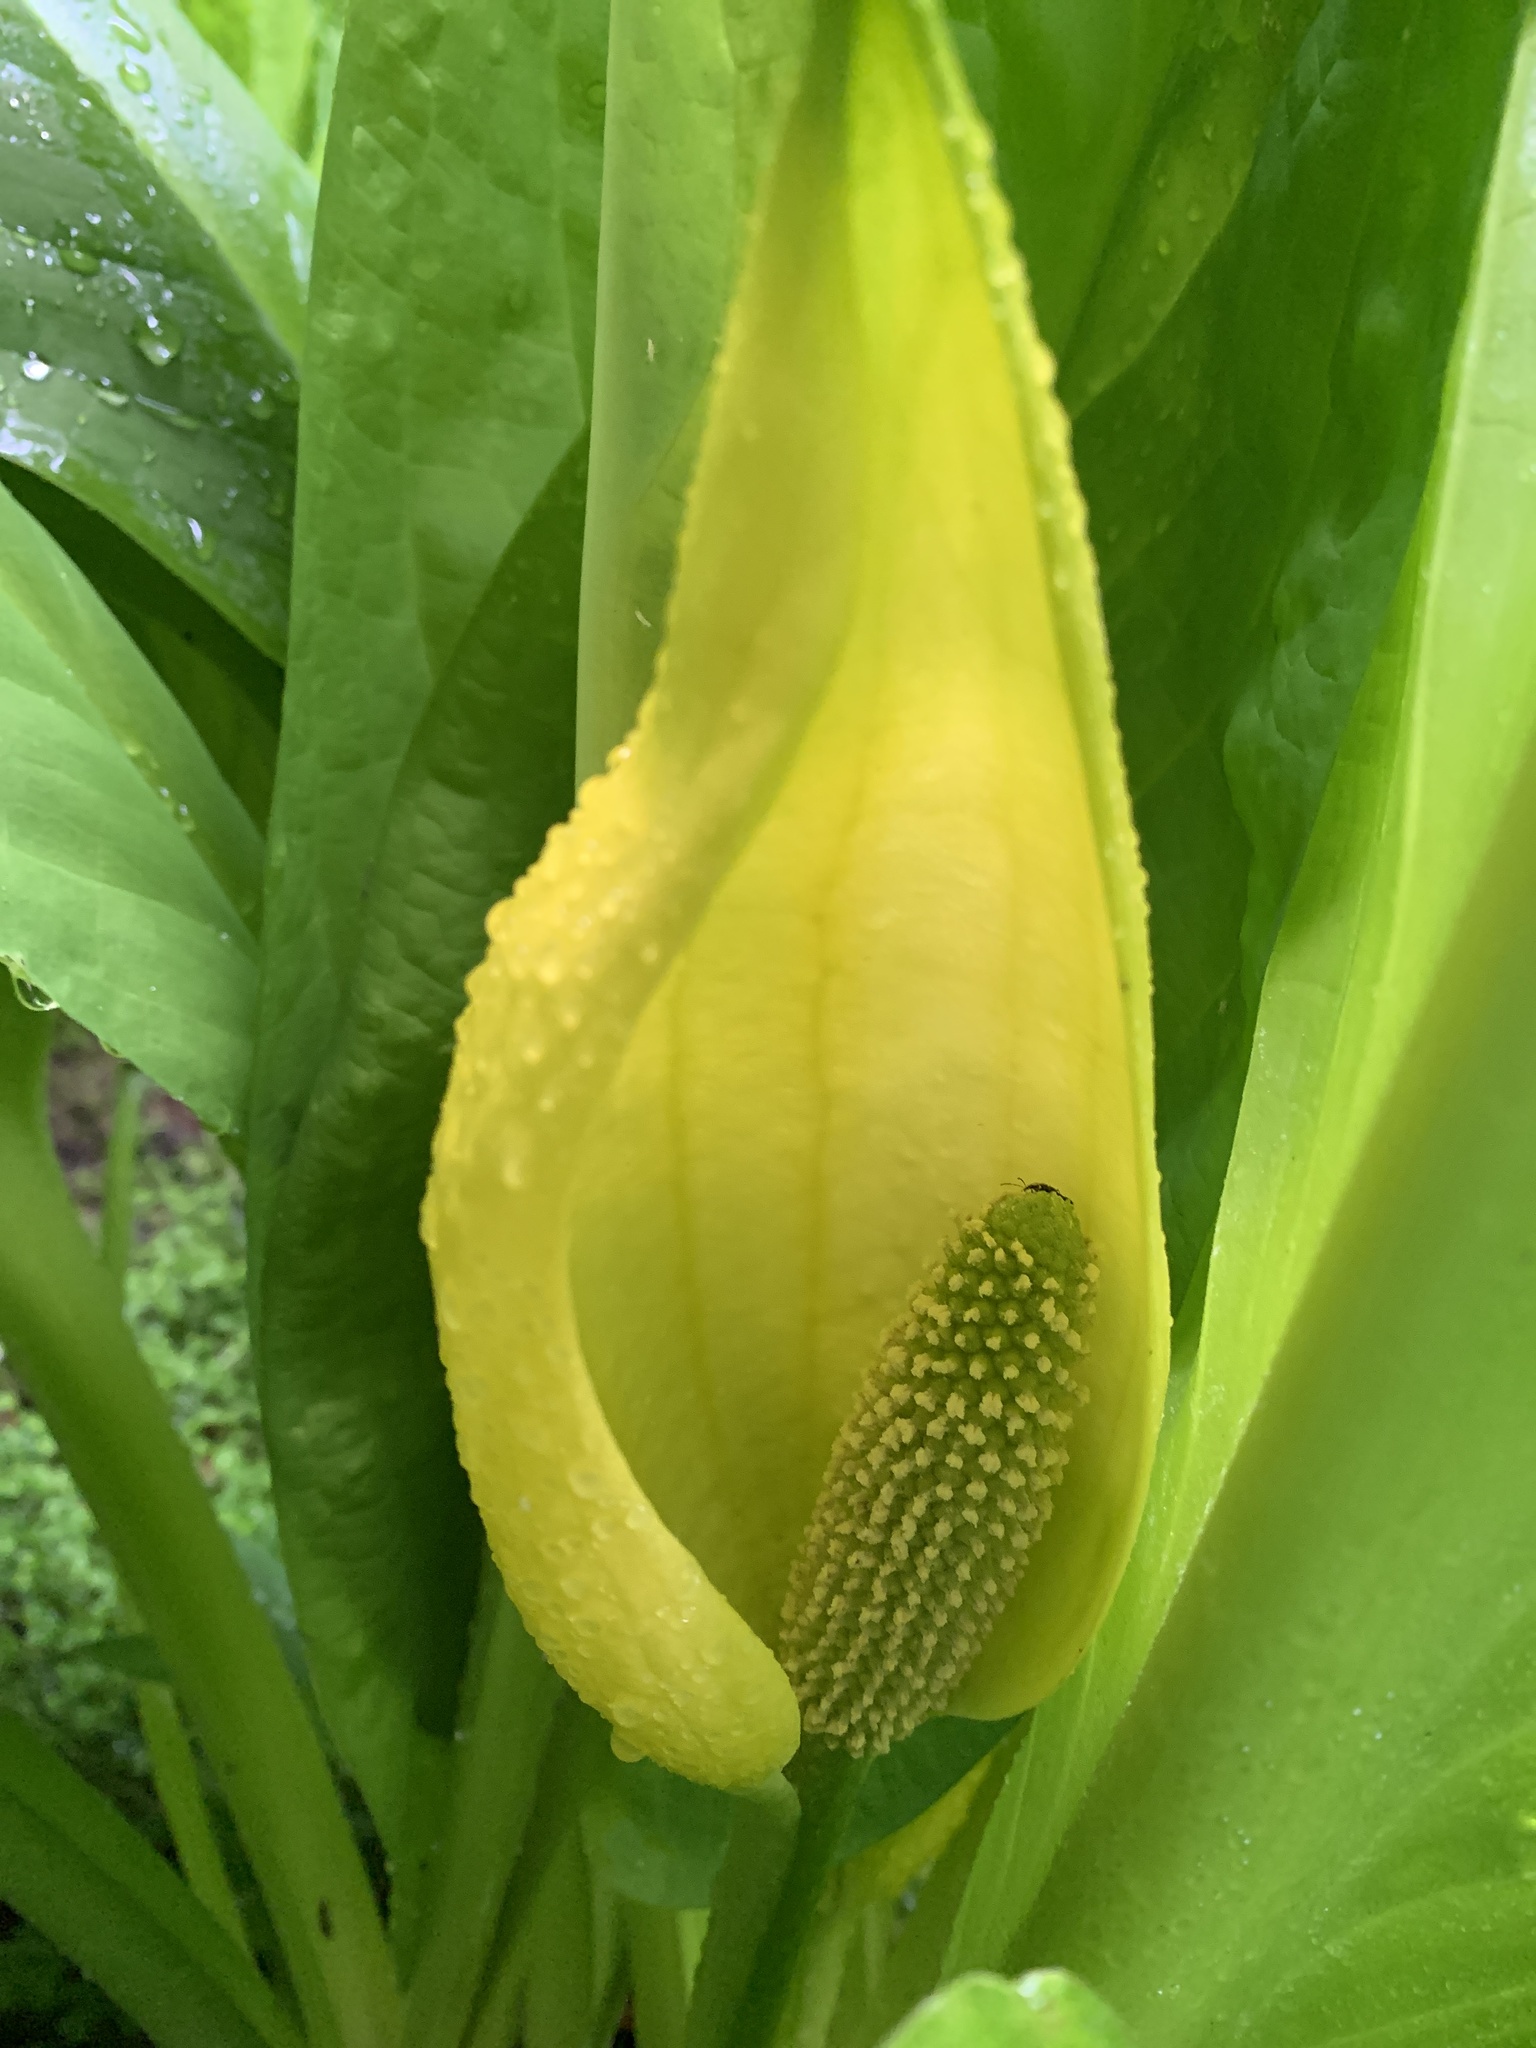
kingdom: Plantae
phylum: Tracheophyta
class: Liliopsida
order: Alismatales
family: Araceae
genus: Lysichiton
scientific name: Lysichiton americanus
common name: American skunk cabbage
